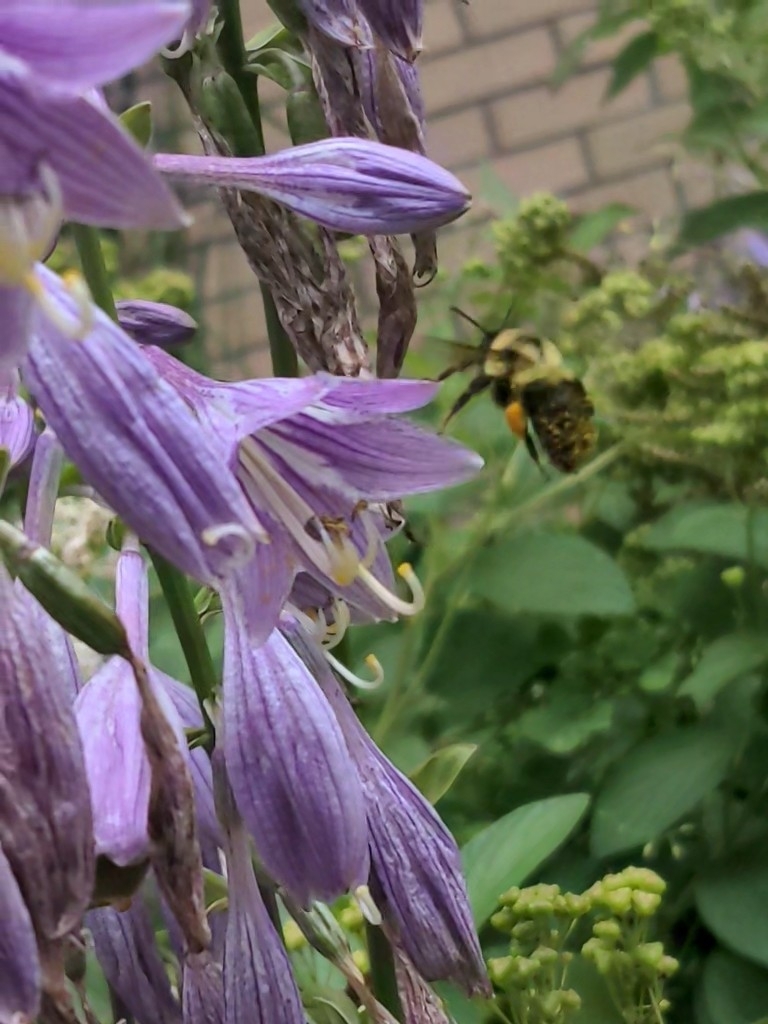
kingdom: Animalia
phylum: Arthropoda
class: Insecta
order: Hymenoptera
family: Apidae
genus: Bombus
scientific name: Bombus bimaculatus
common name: Two-spotted bumble bee
